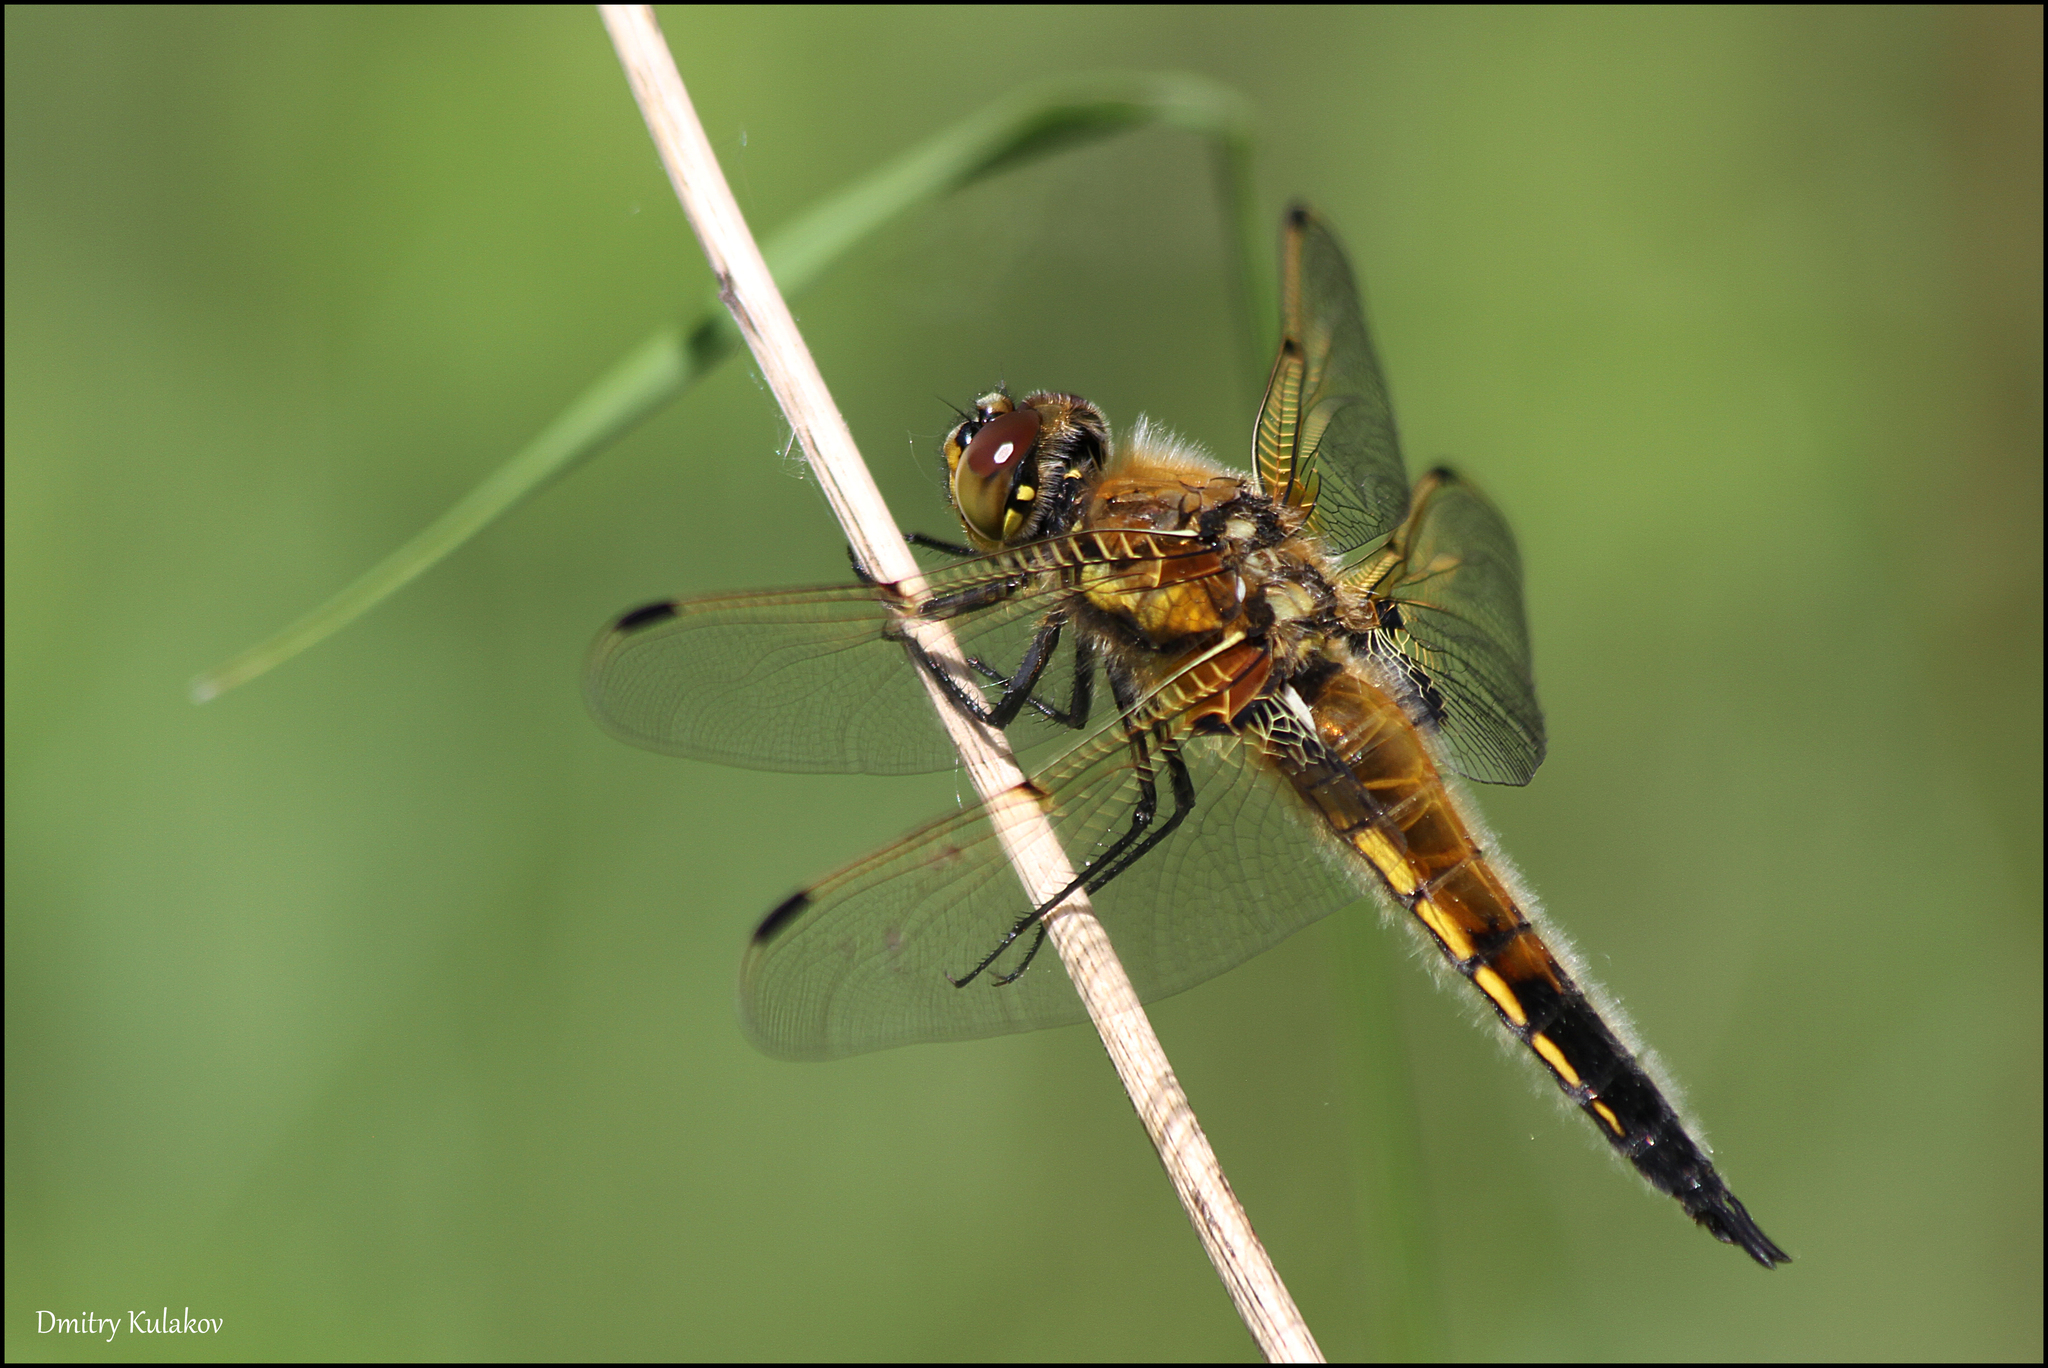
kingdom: Animalia
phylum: Arthropoda
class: Insecta
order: Odonata
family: Libellulidae
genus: Libellula
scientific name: Libellula quadrimaculata
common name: Four-spotted chaser
